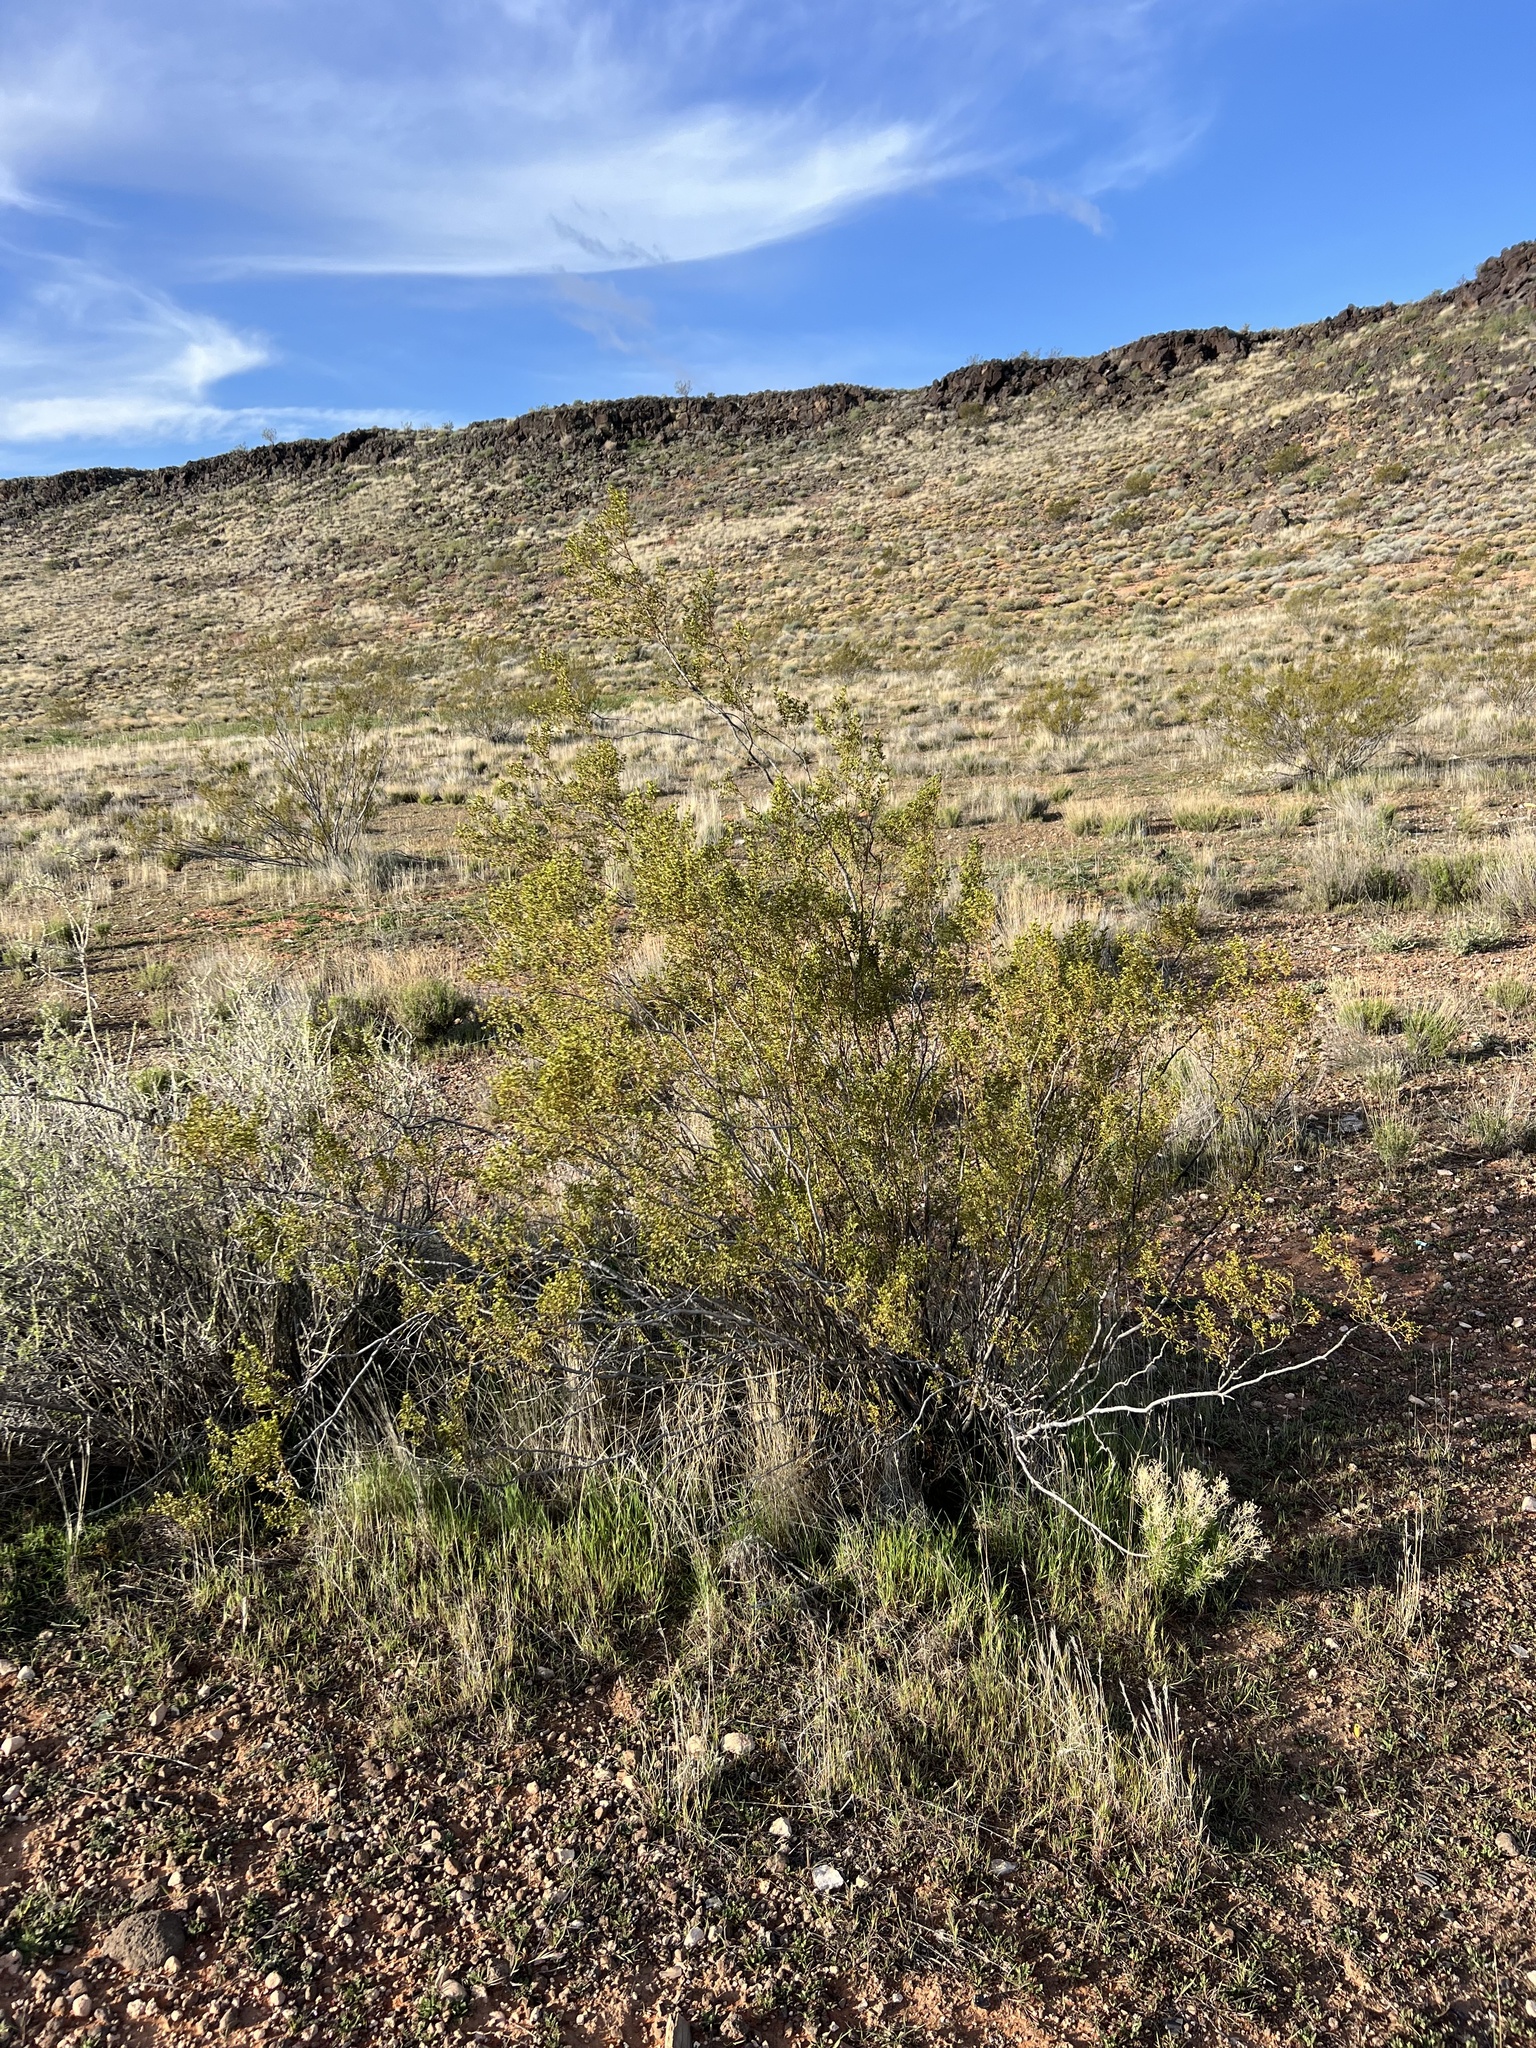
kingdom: Plantae
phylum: Tracheophyta
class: Magnoliopsida
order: Zygophyllales
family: Zygophyllaceae
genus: Larrea
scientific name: Larrea tridentata
